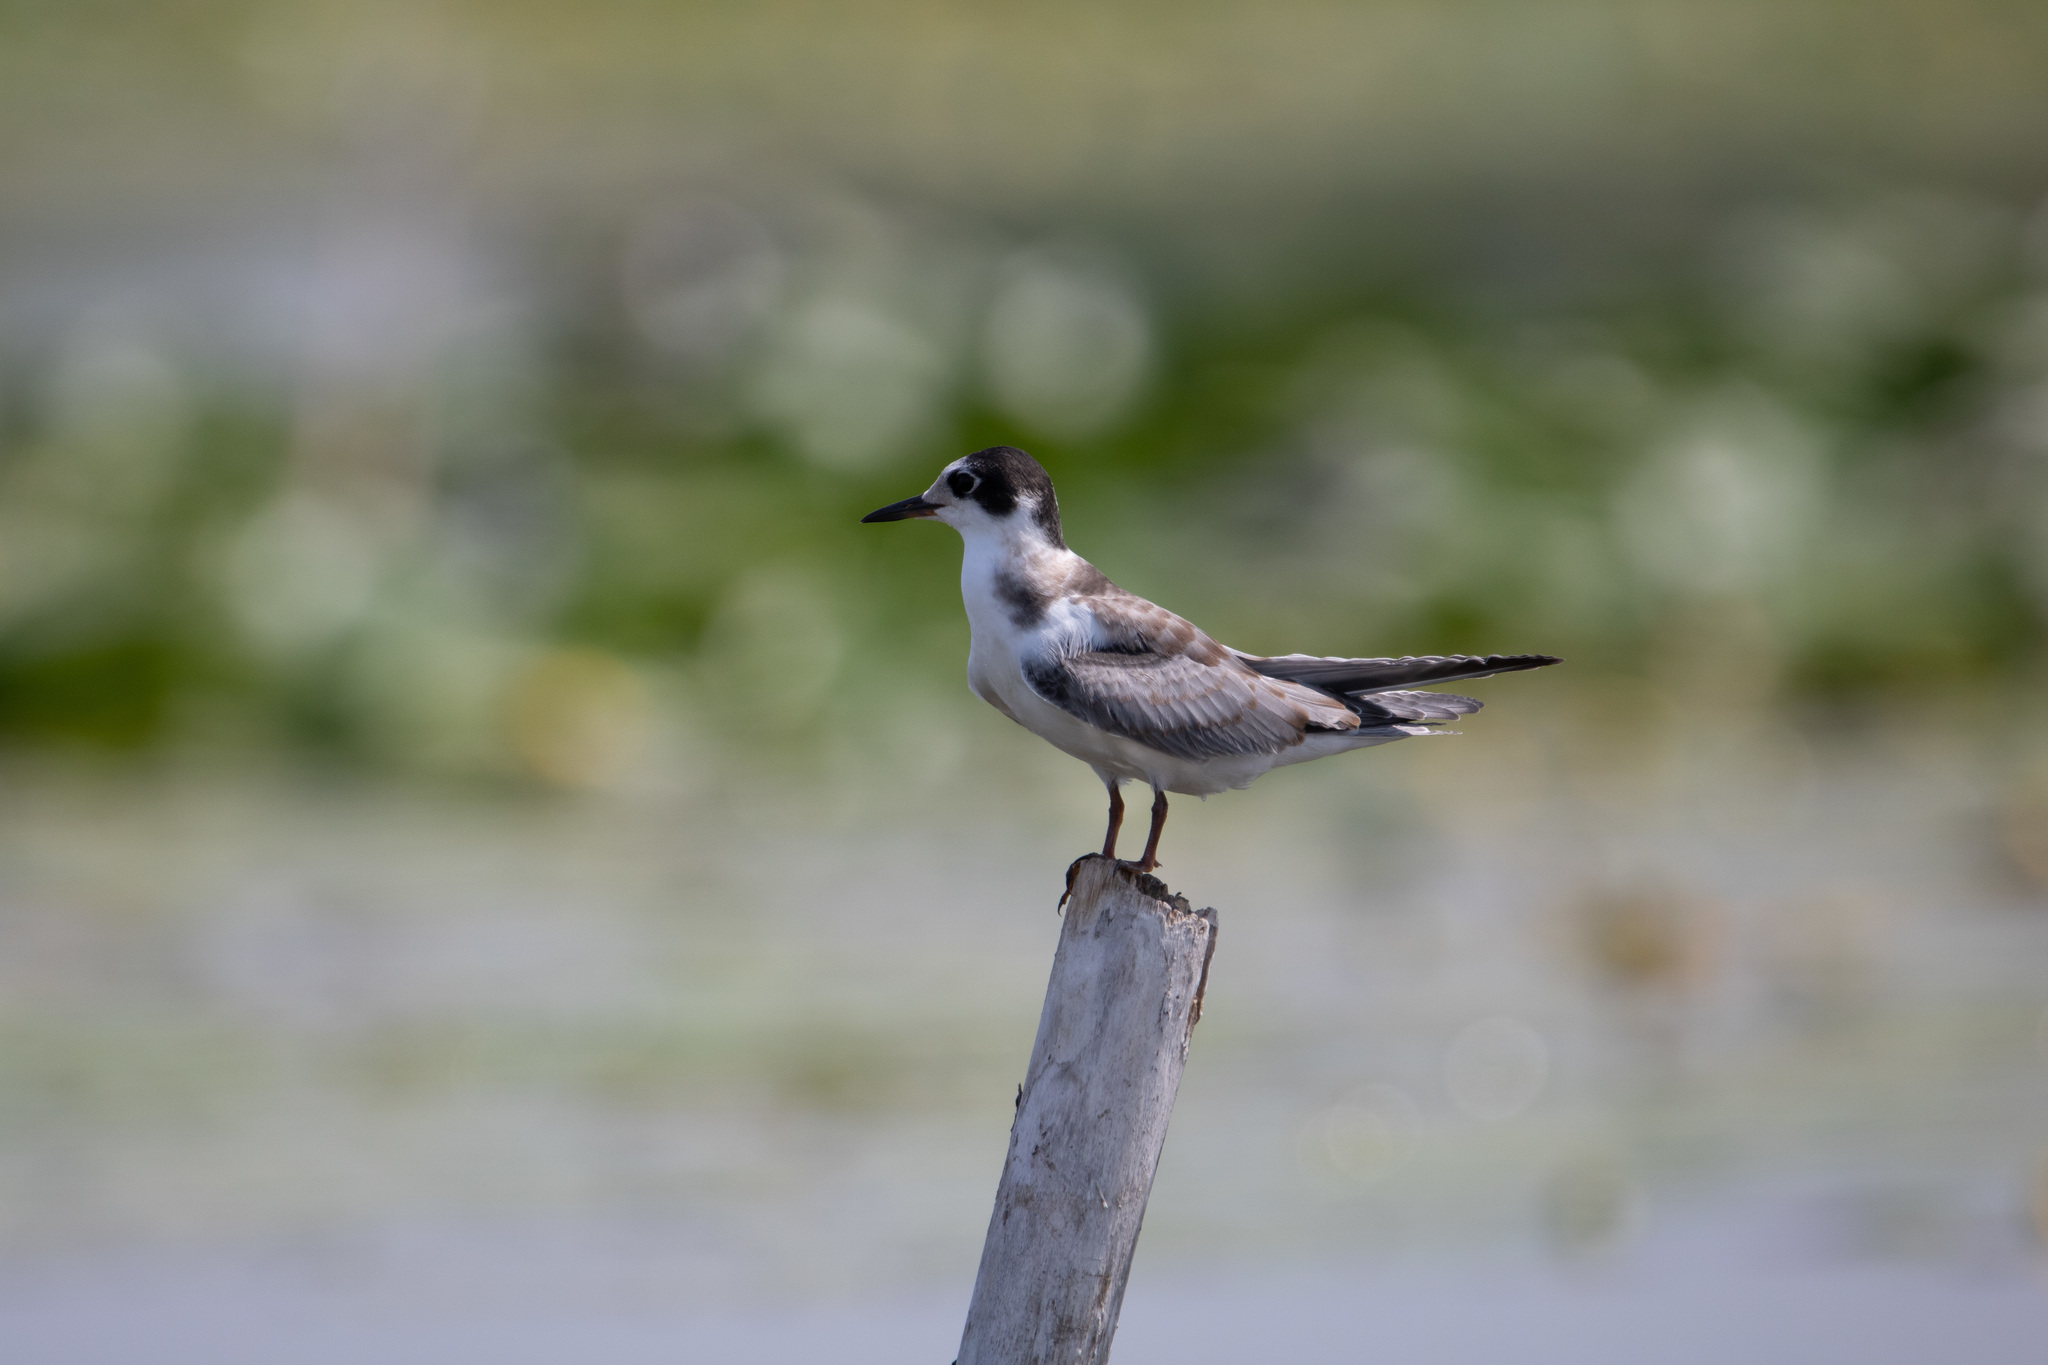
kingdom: Animalia
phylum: Chordata
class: Aves
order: Charadriiformes
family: Laridae
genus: Chlidonias
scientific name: Chlidonias niger
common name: Black tern
